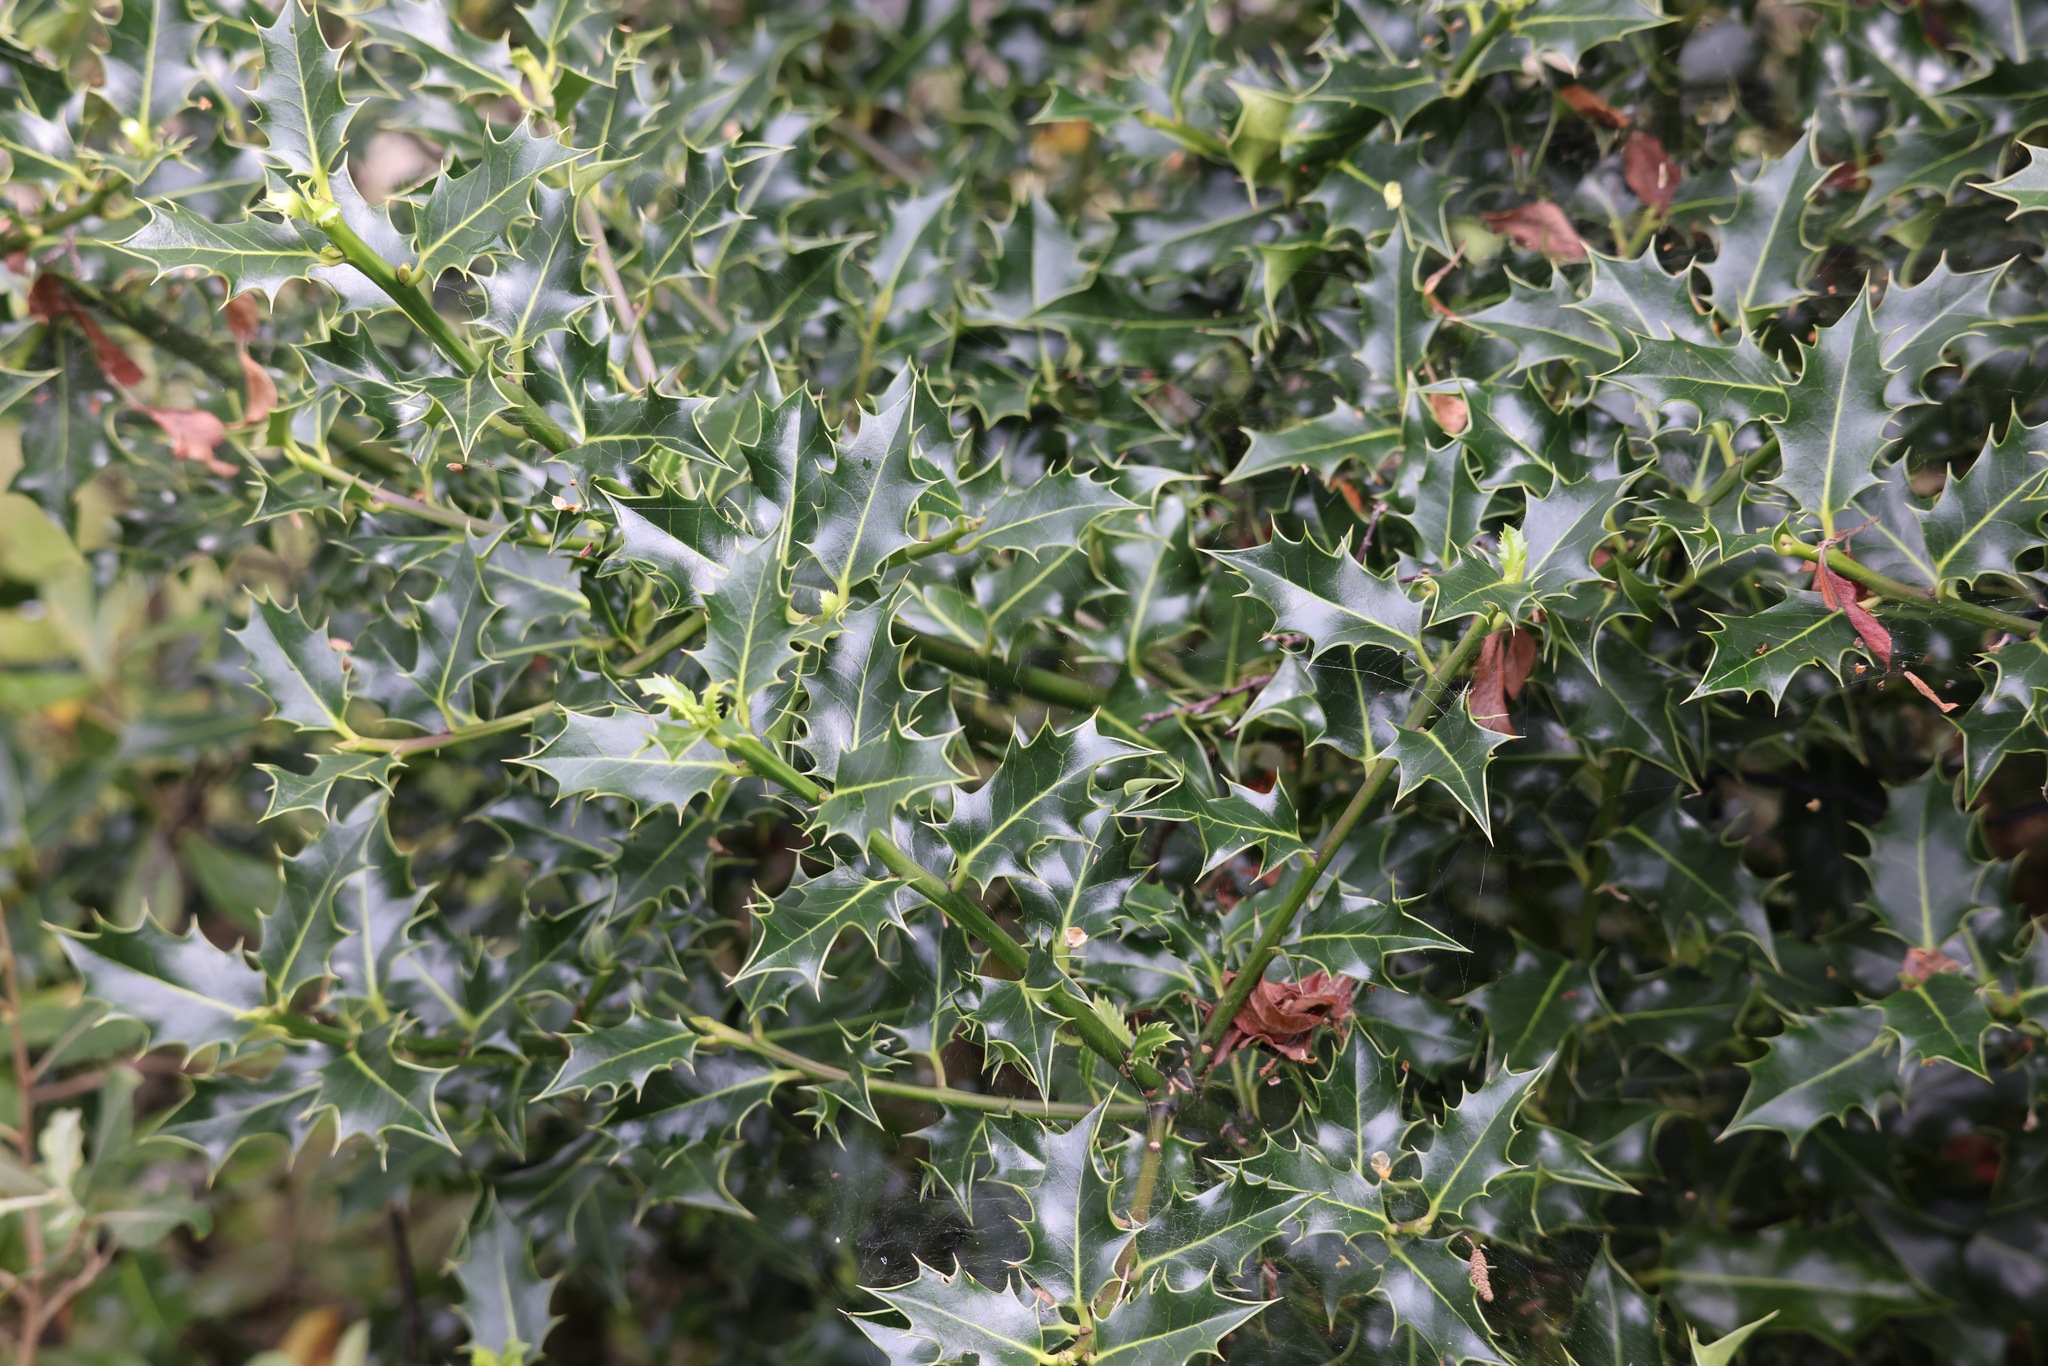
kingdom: Plantae
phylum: Tracheophyta
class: Magnoliopsida
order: Aquifoliales
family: Aquifoliaceae
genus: Ilex
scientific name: Ilex aquifolium
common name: English holly
